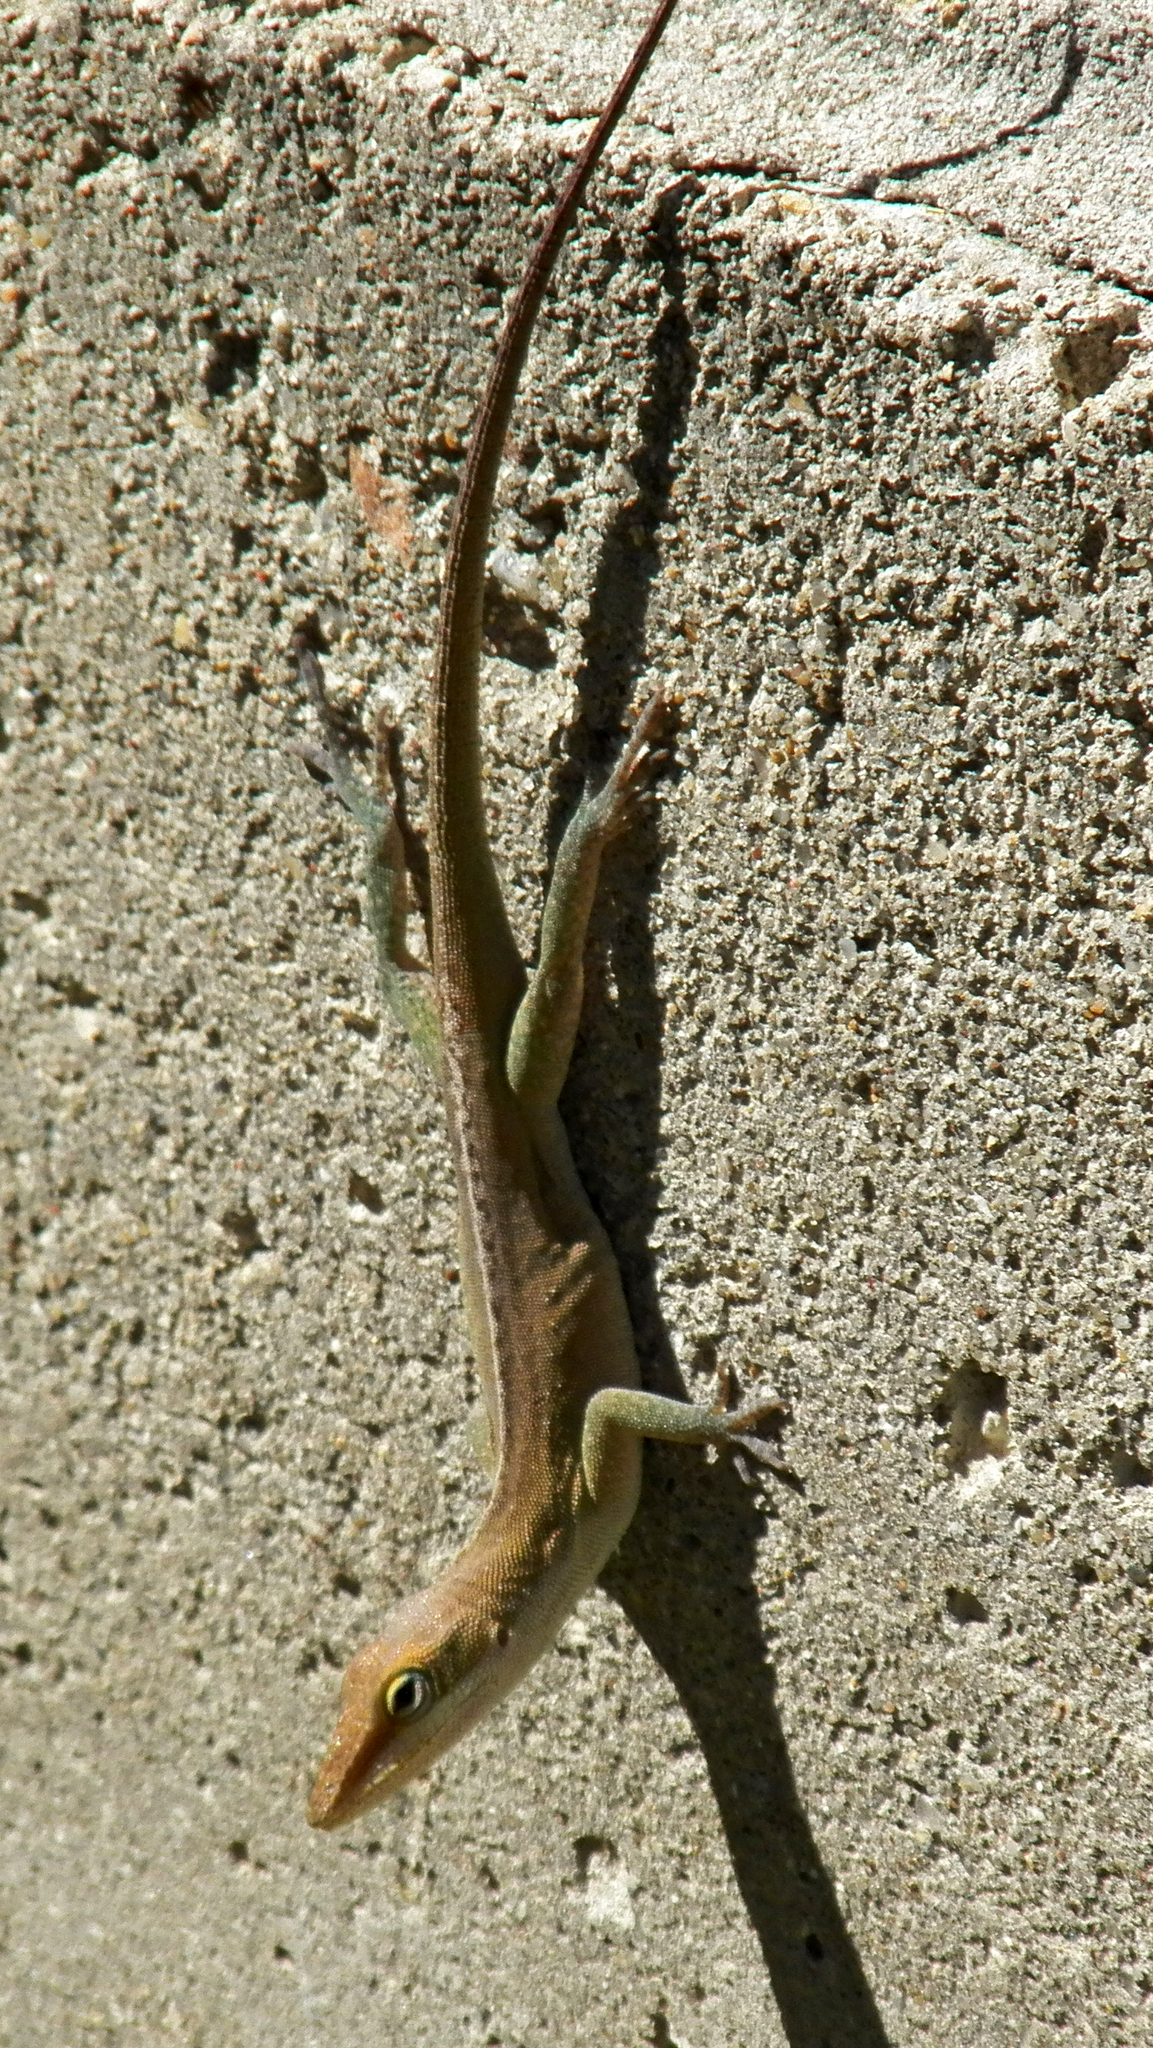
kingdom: Animalia
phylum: Chordata
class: Squamata
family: Dactyloidae
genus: Anolis
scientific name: Anolis carolinensis
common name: Green anole
